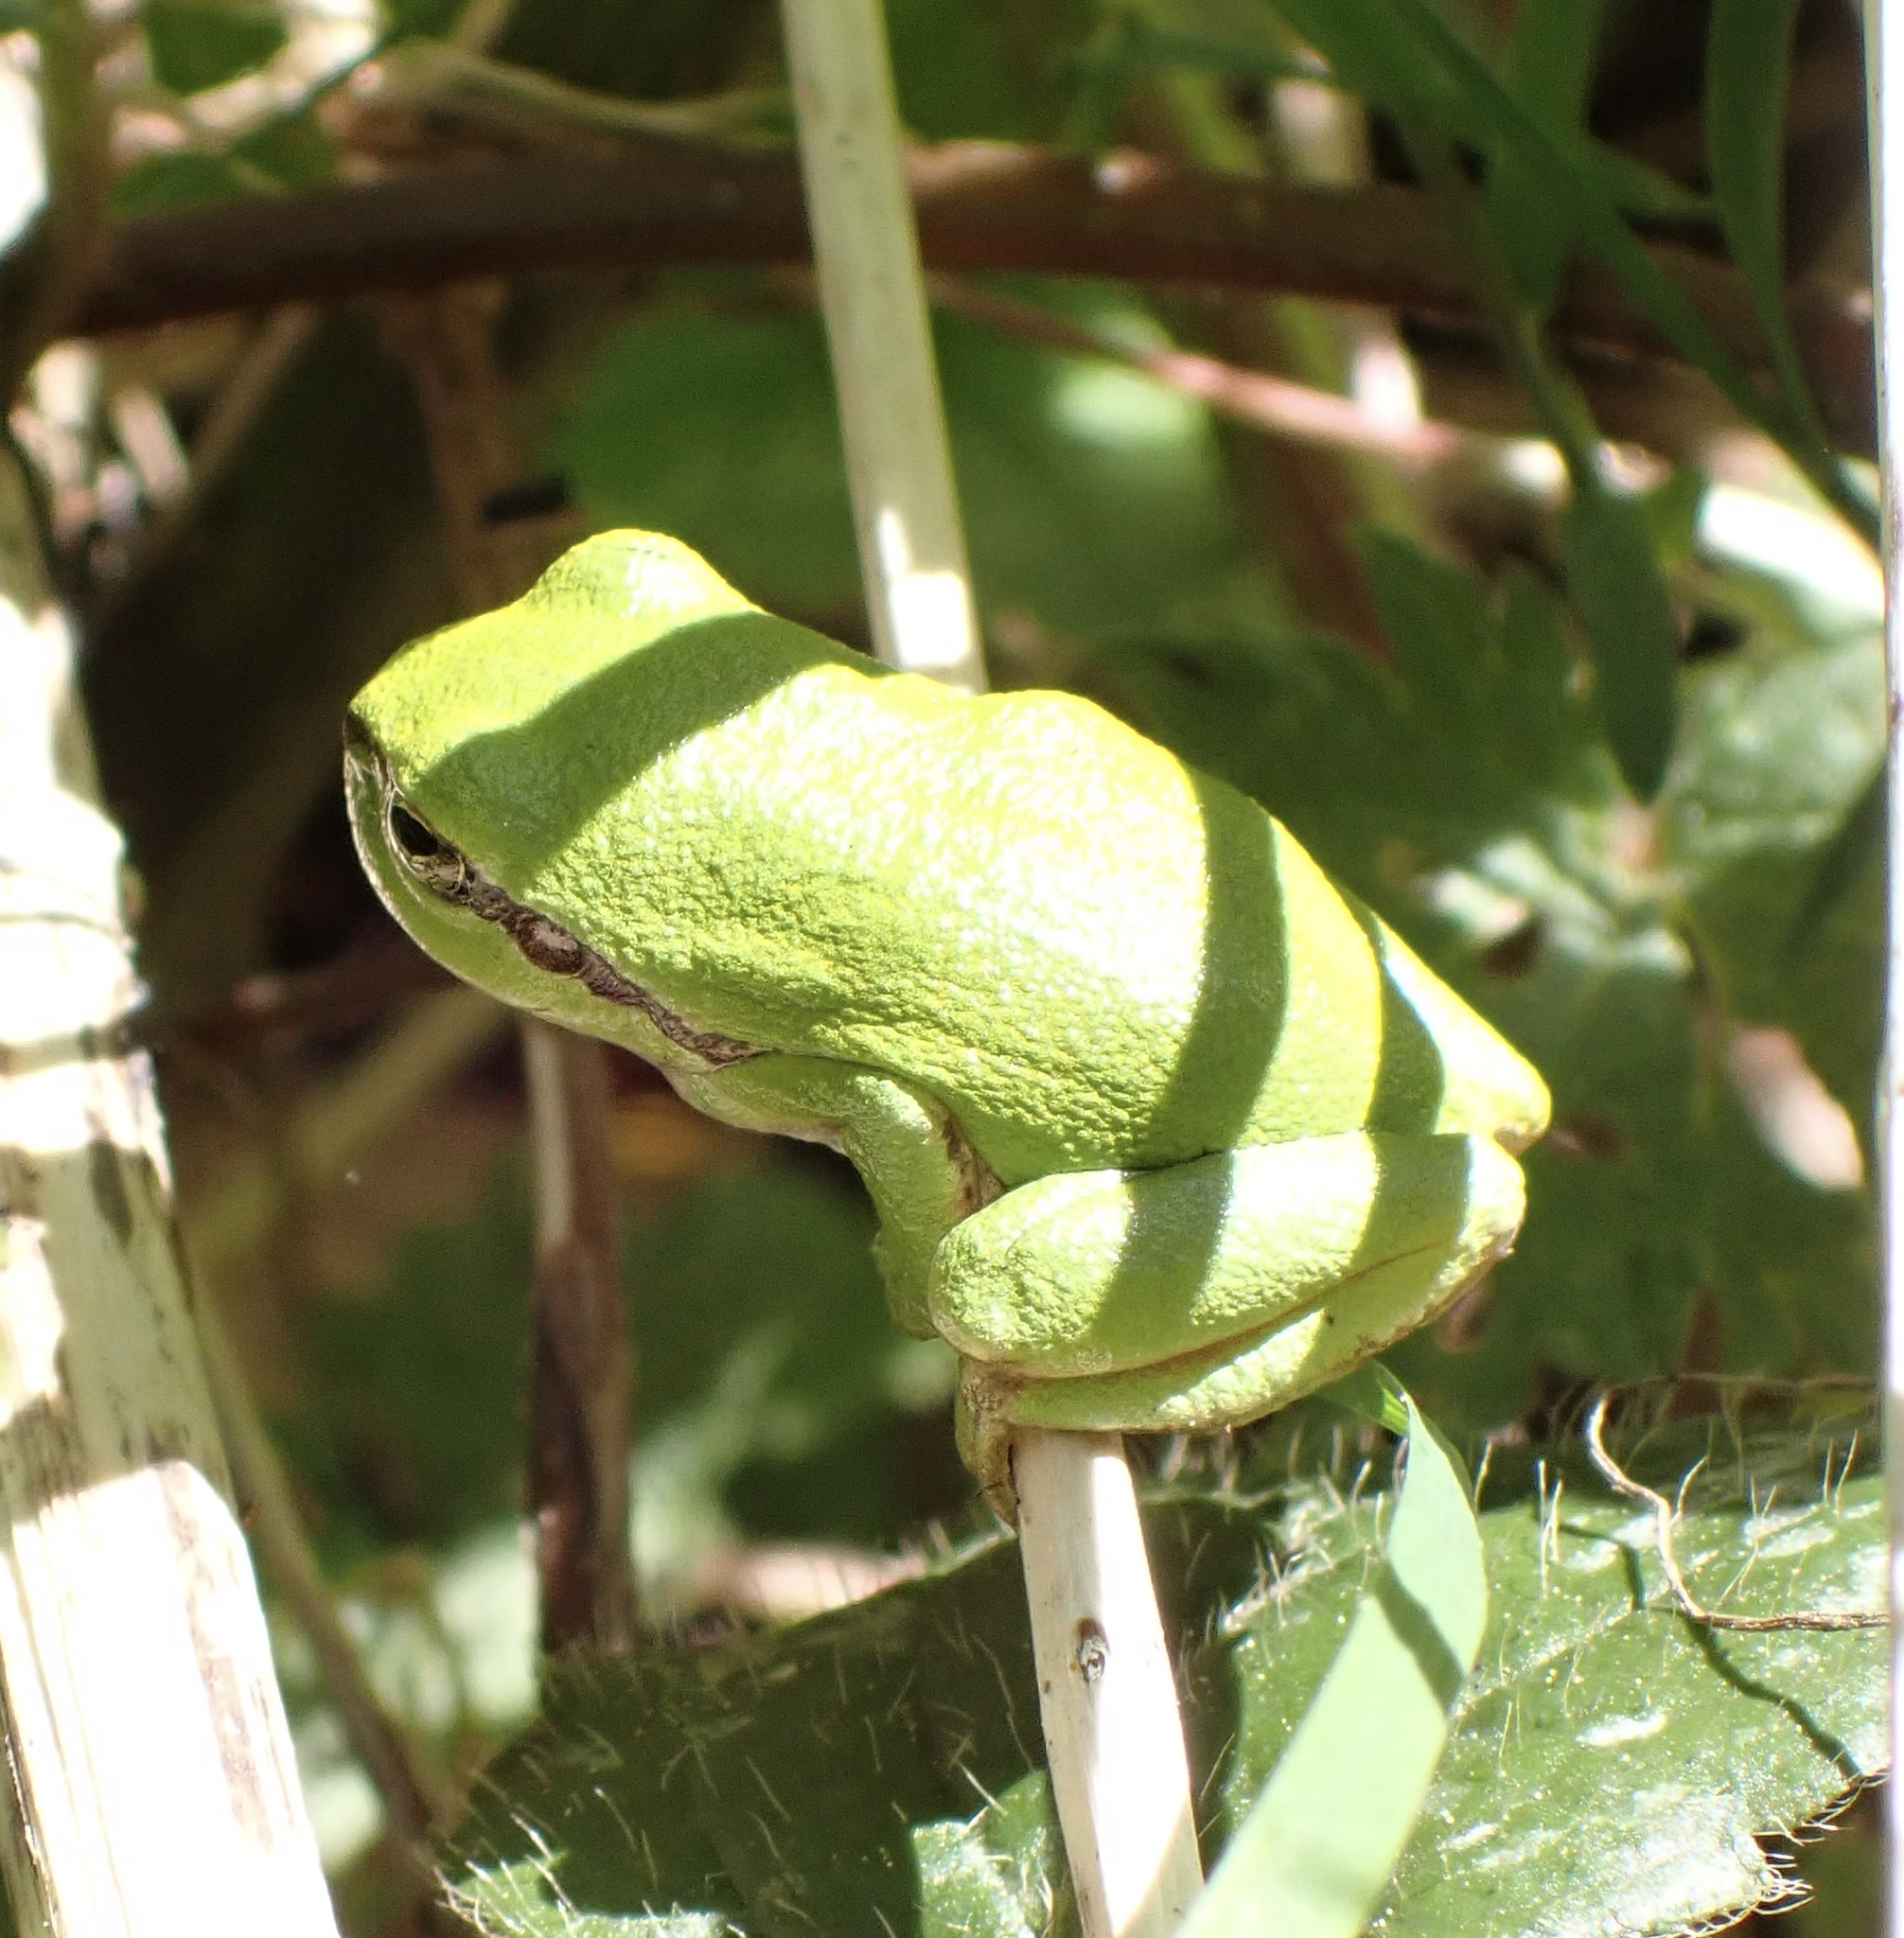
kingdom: Animalia
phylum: Chordata
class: Amphibia
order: Anura
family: Hylidae
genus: Hyla
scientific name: Hyla arborea
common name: Common tree frog
